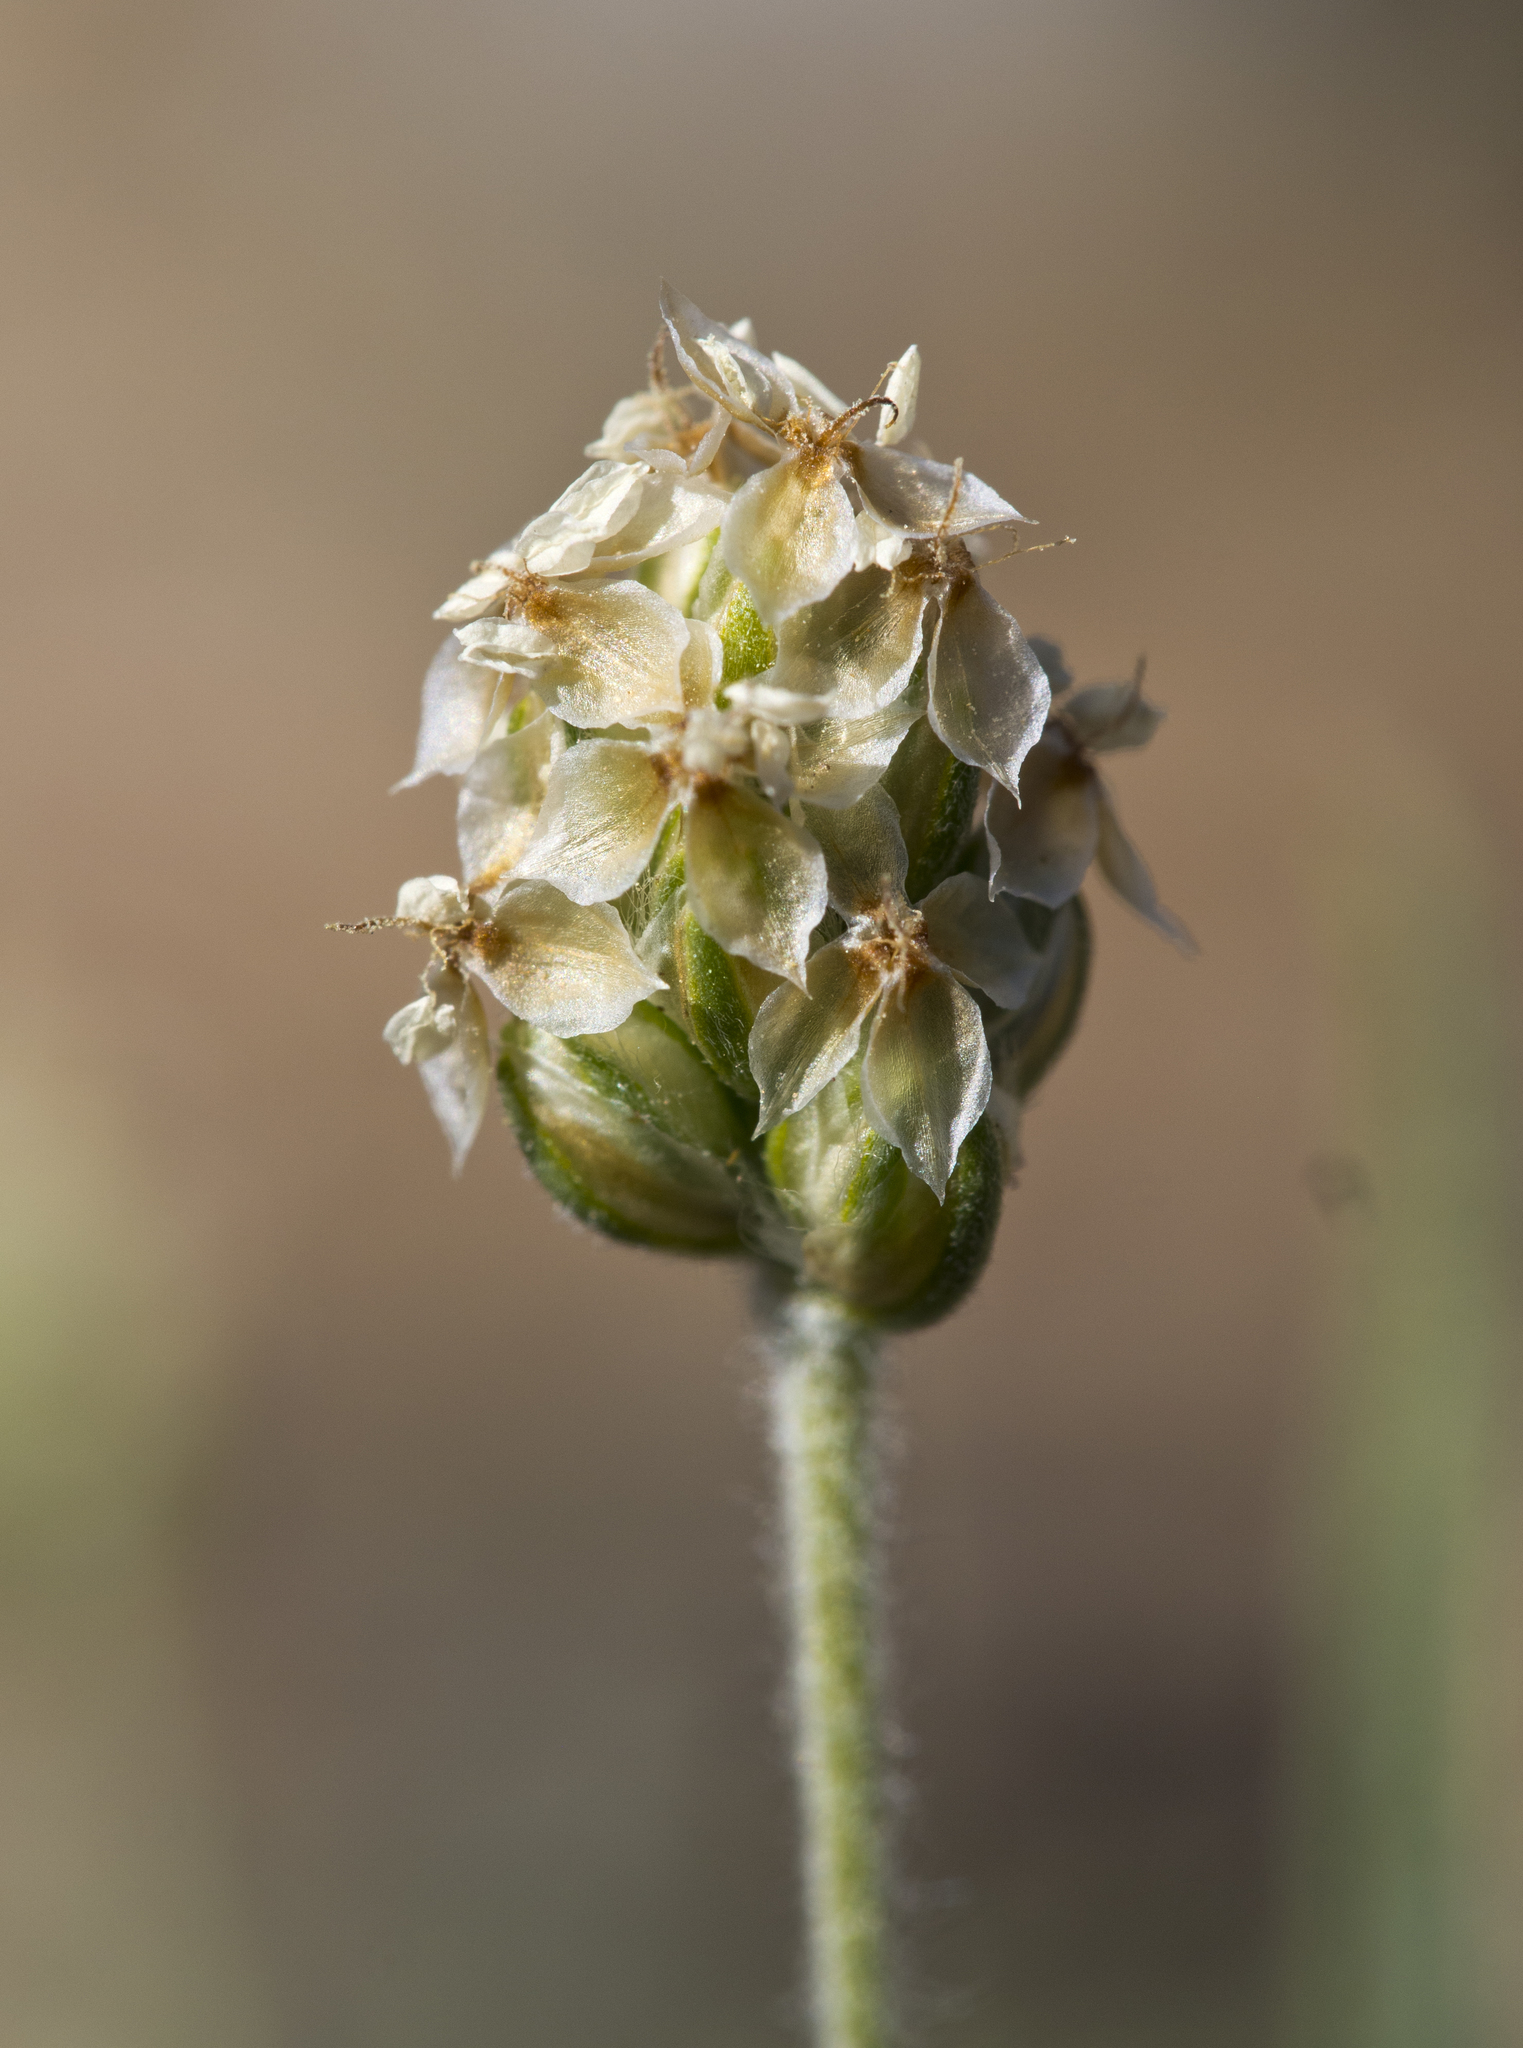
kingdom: Plantae
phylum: Tracheophyta
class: Magnoliopsida
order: Lamiales
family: Plantaginaceae
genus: Plantago
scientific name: Plantago ovata
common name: Blond plantain
